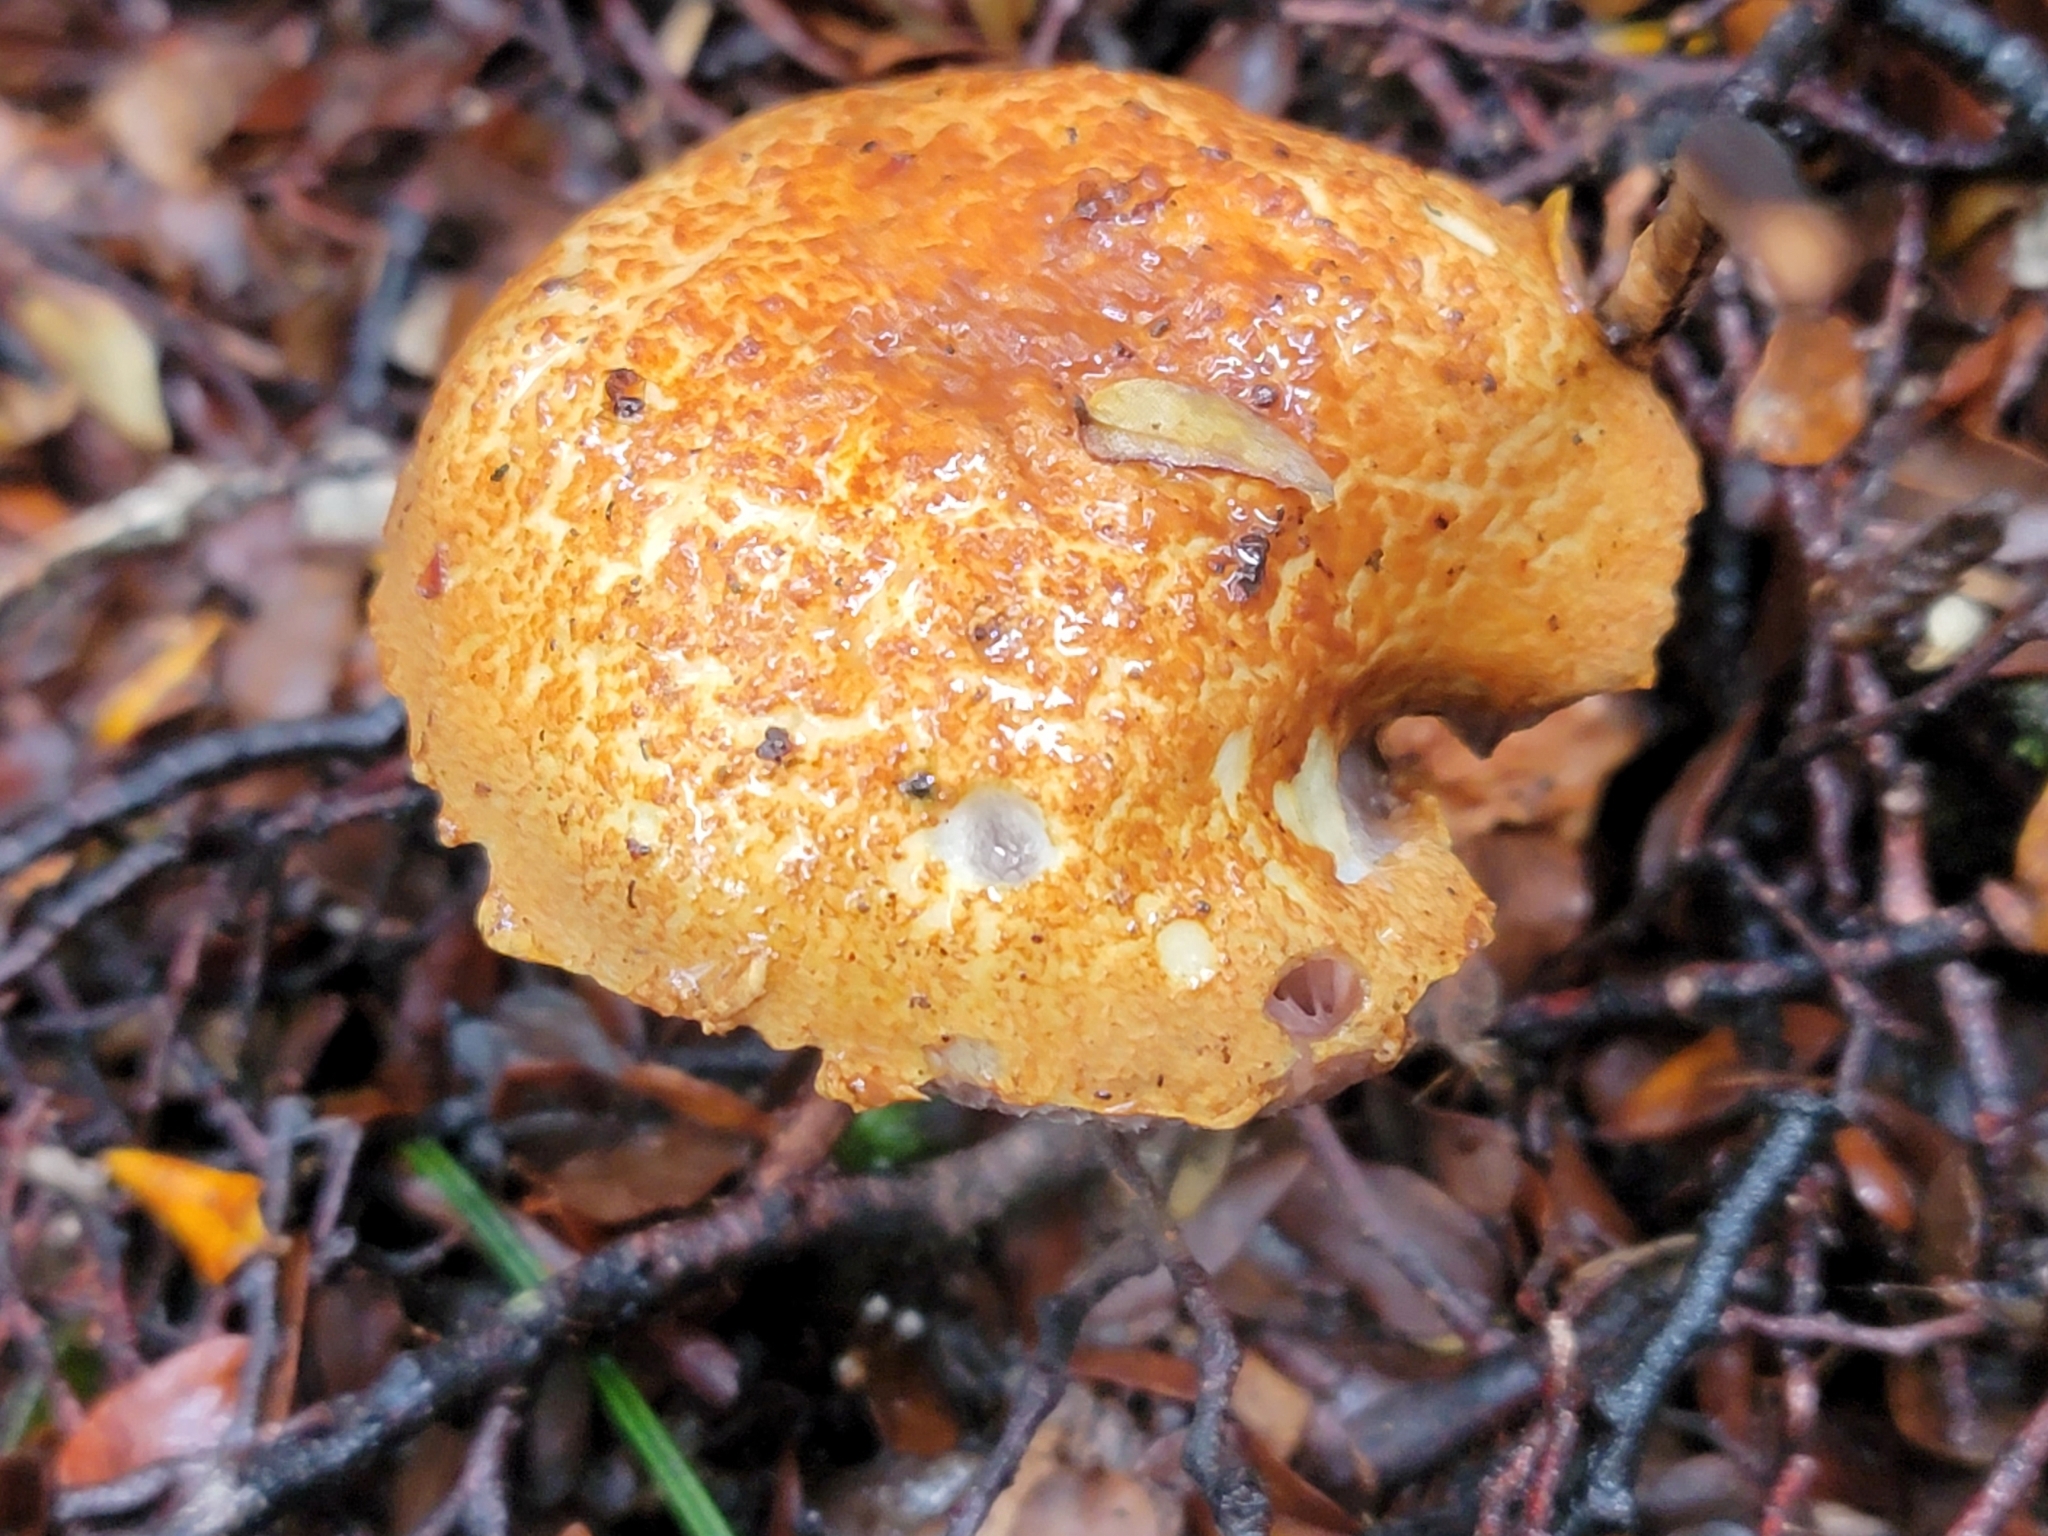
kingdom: Fungi
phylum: Basidiomycota
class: Agaricomycetes
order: Boletales
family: Boletaceae
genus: Austroboletus
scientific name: Austroboletus lacunosus
